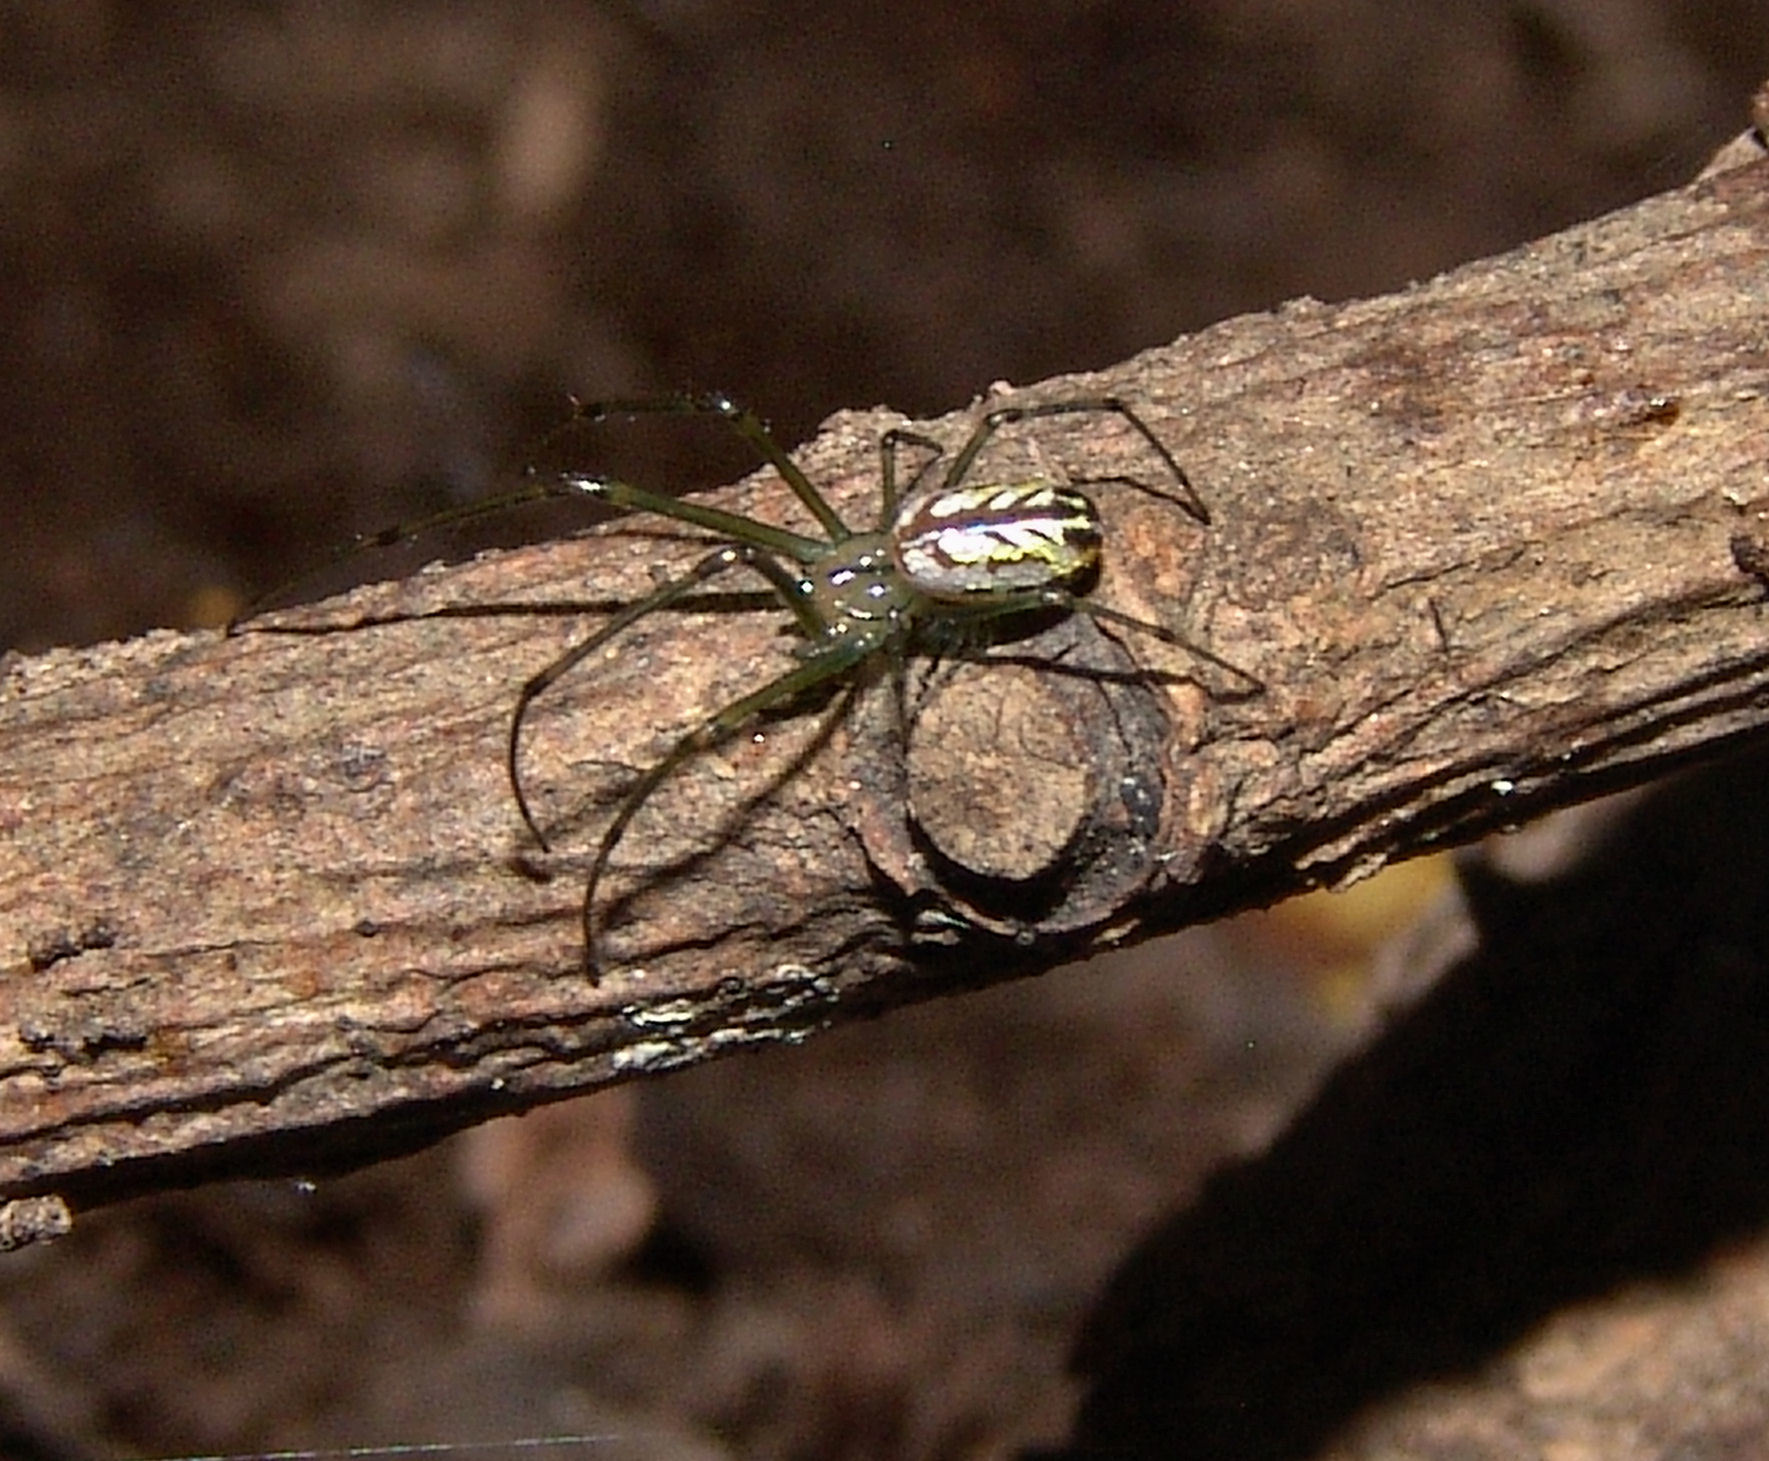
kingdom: Animalia
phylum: Arthropoda
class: Arachnida
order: Araneae
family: Tetragnathidae
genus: Leucauge
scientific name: Leucauge venusta
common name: Longjawed orb weavers
